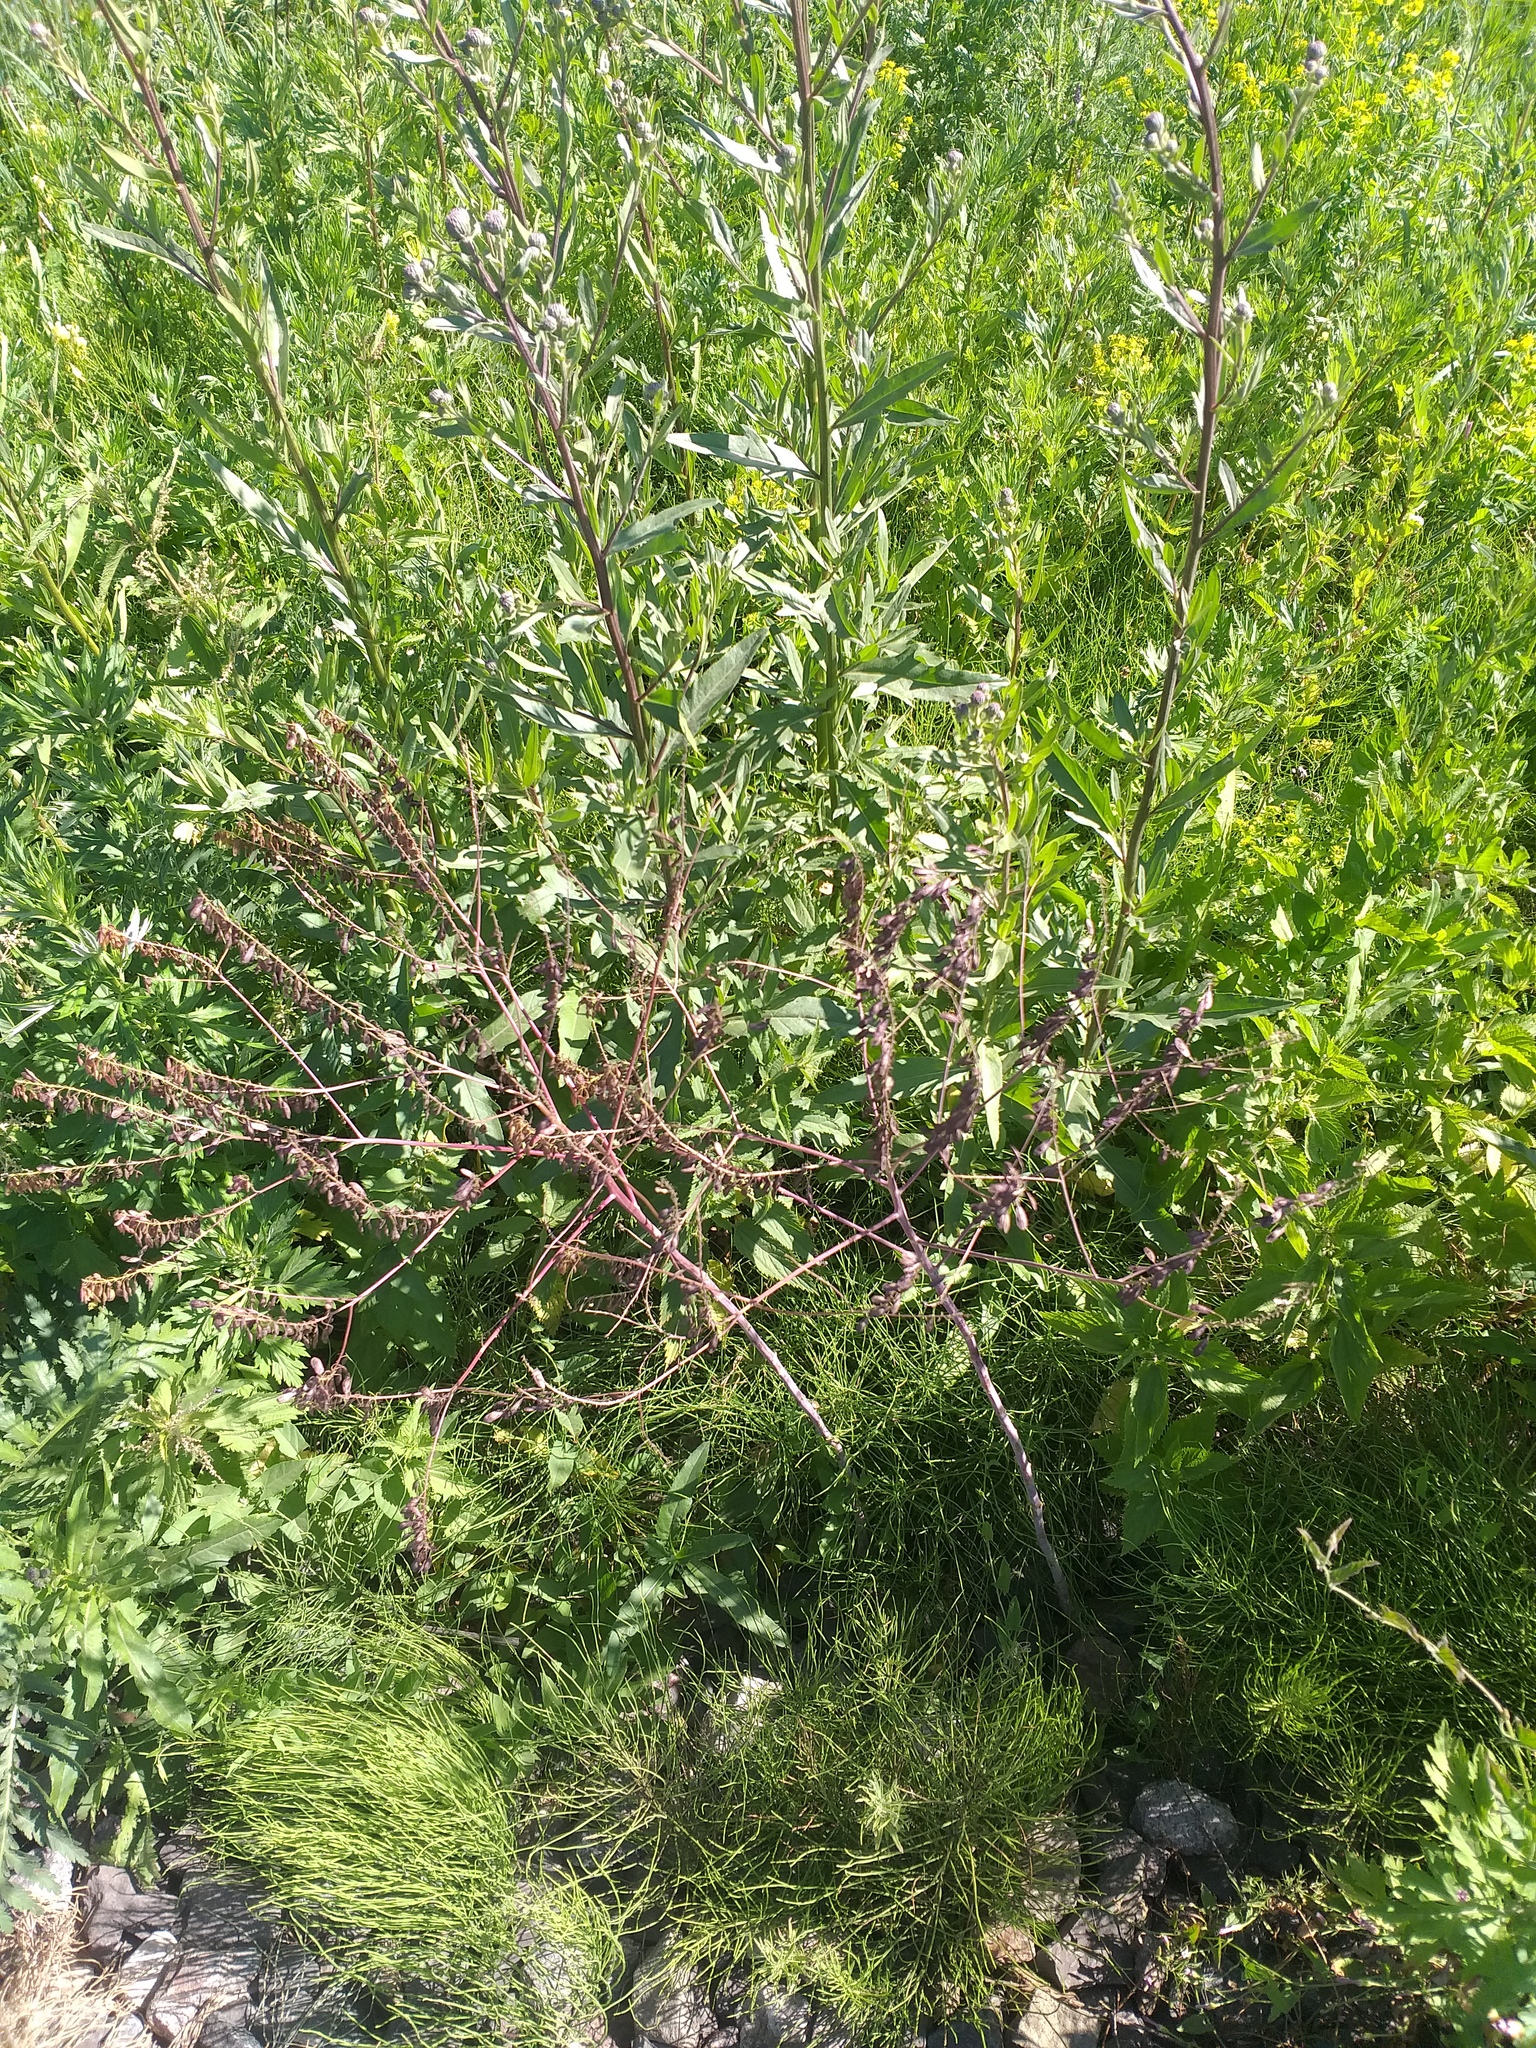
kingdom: Plantae
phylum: Tracheophyta
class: Magnoliopsida
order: Brassicales
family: Brassicaceae
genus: Isatis
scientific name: Isatis costata
